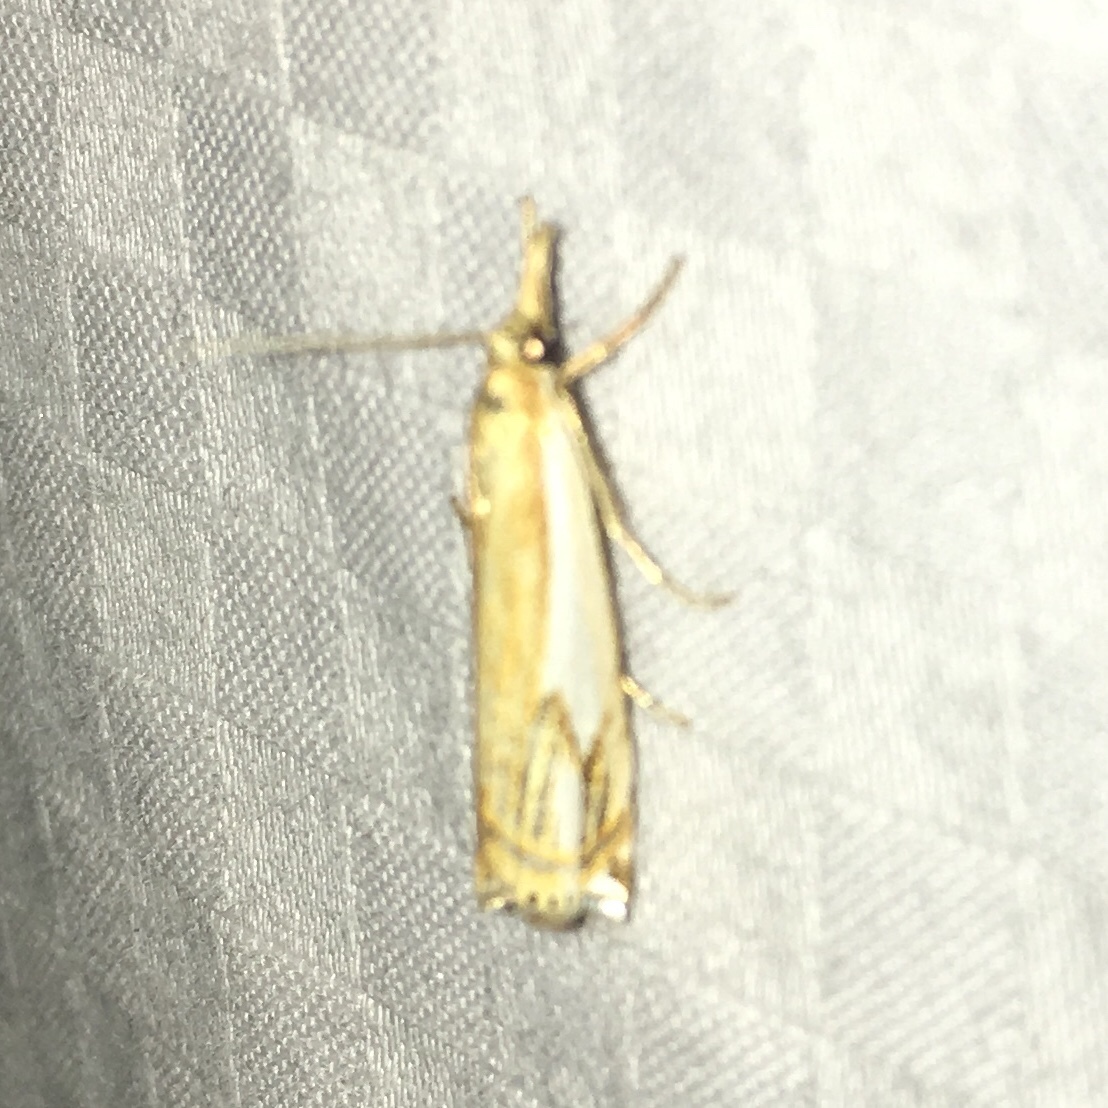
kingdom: Animalia
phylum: Arthropoda
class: Insecta
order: Lepidoptera
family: Crambidae
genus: Crambus
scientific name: Crambus agitatellus
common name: Double-banded grass-veneer
